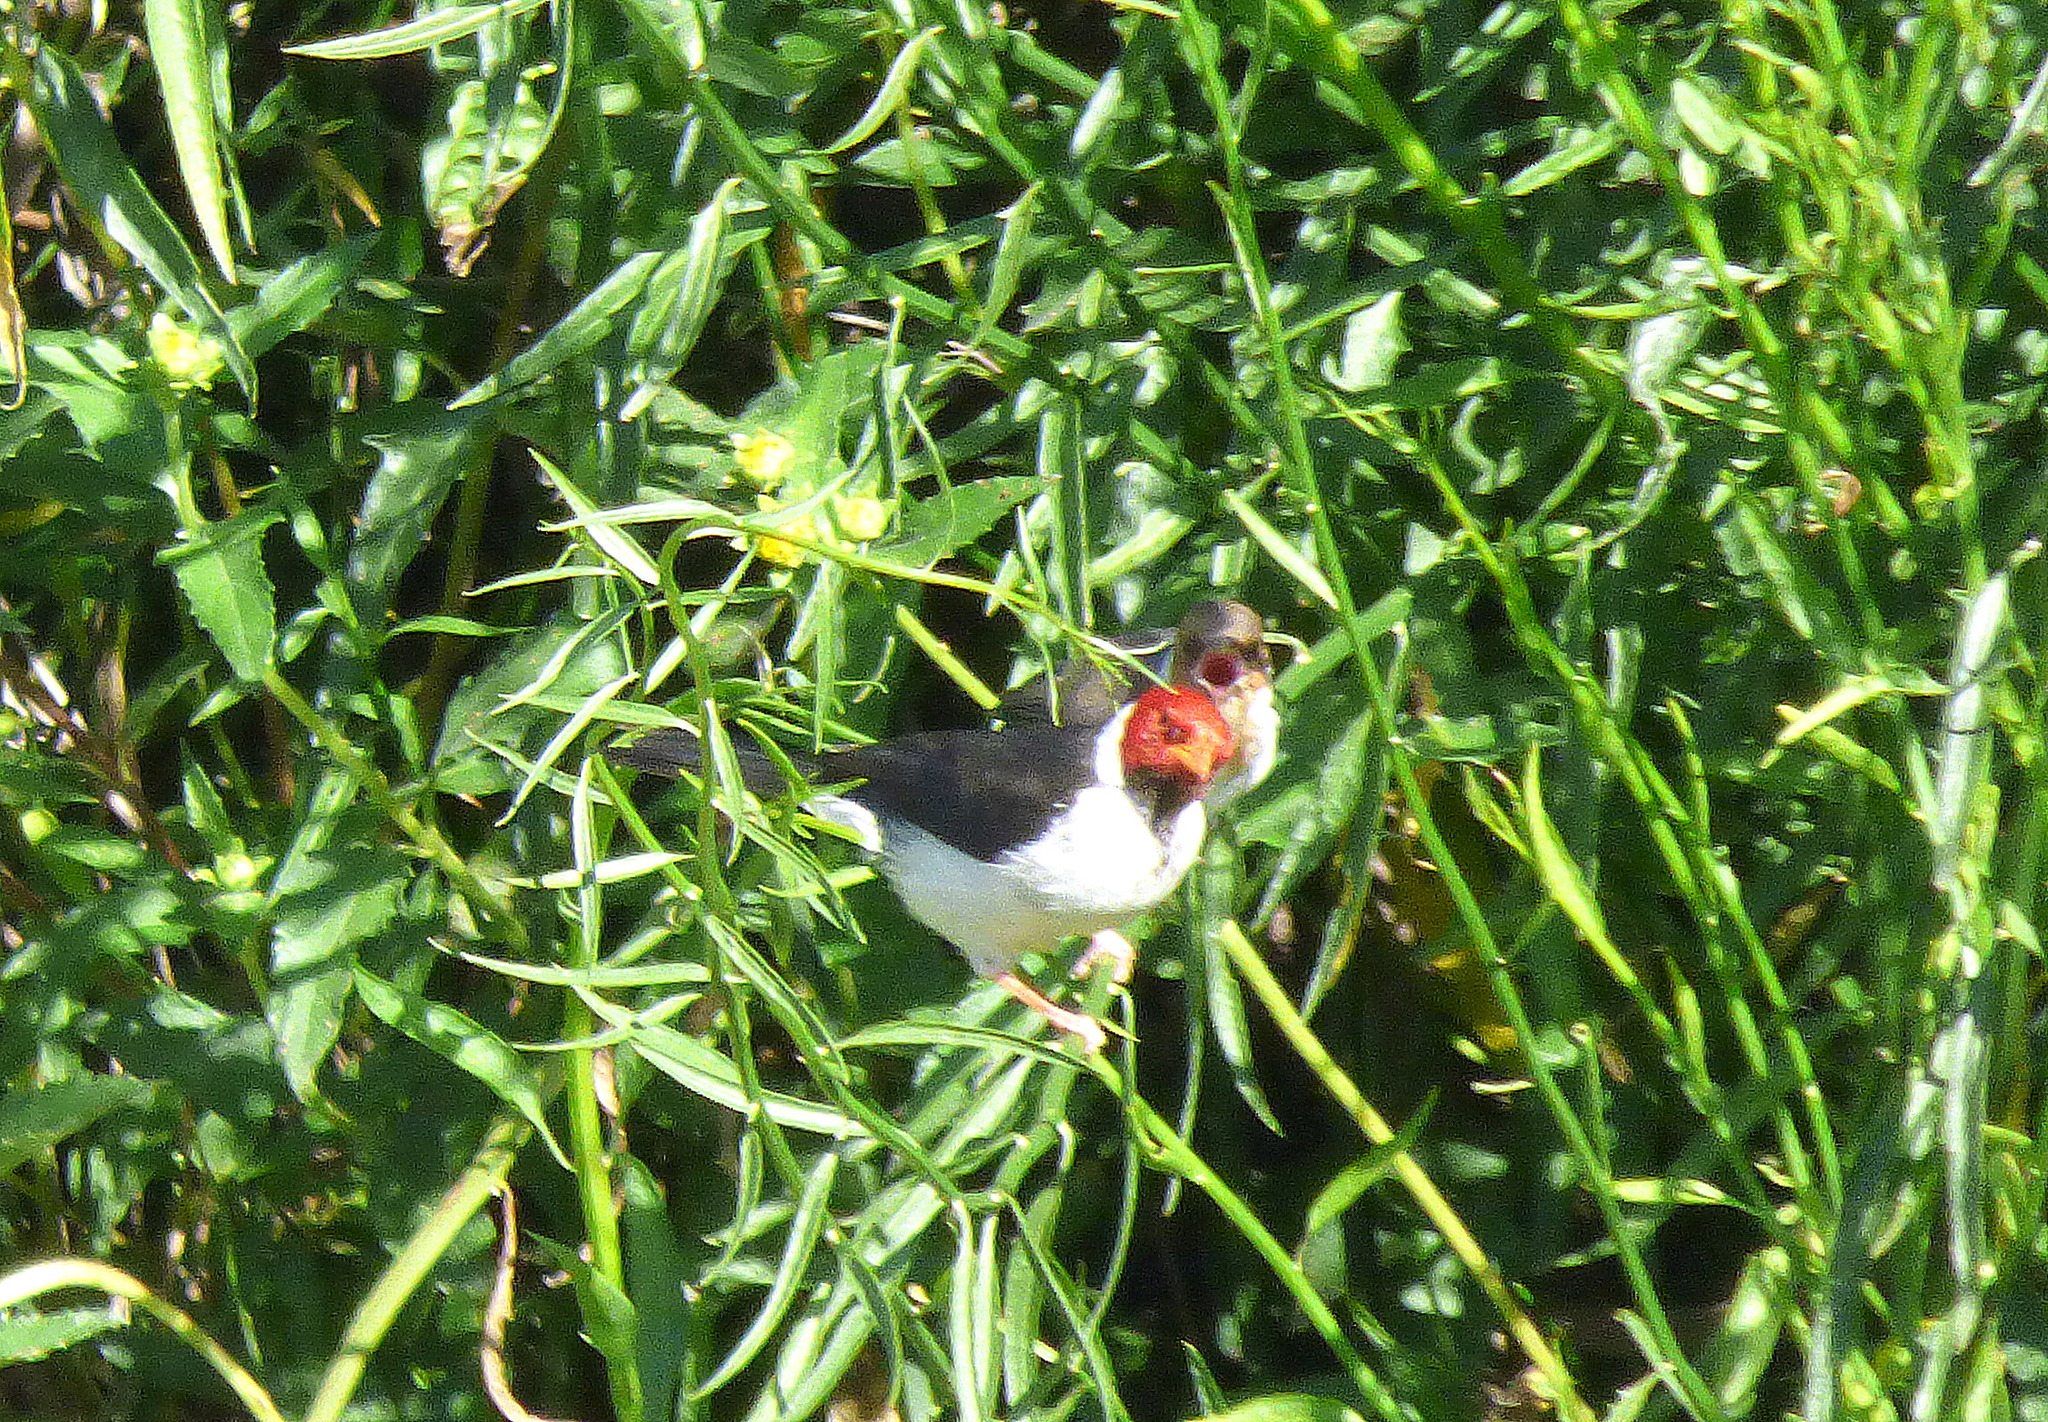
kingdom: Animalia
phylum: Chordata
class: Aves
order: Passeriformes
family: Thraupidae
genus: Paroaria
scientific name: Paroaria capitata
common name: Yellow-billed cardinal
